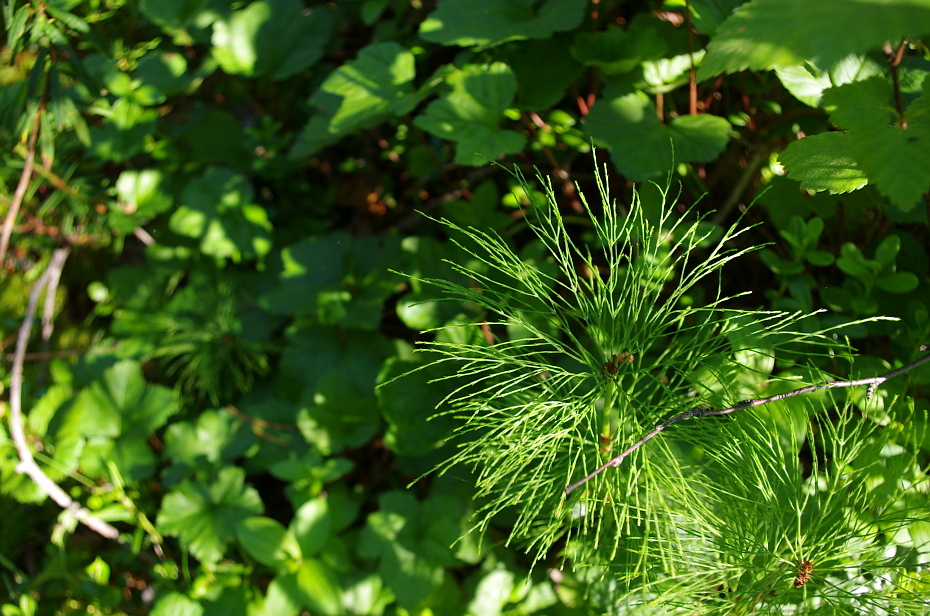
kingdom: Plantae
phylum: Tracheophyta
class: Polypodiopsida
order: Equisetales
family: Equisetaceae
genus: Equisetum
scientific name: Equisetum sylvaticum
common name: Wood horsetail
